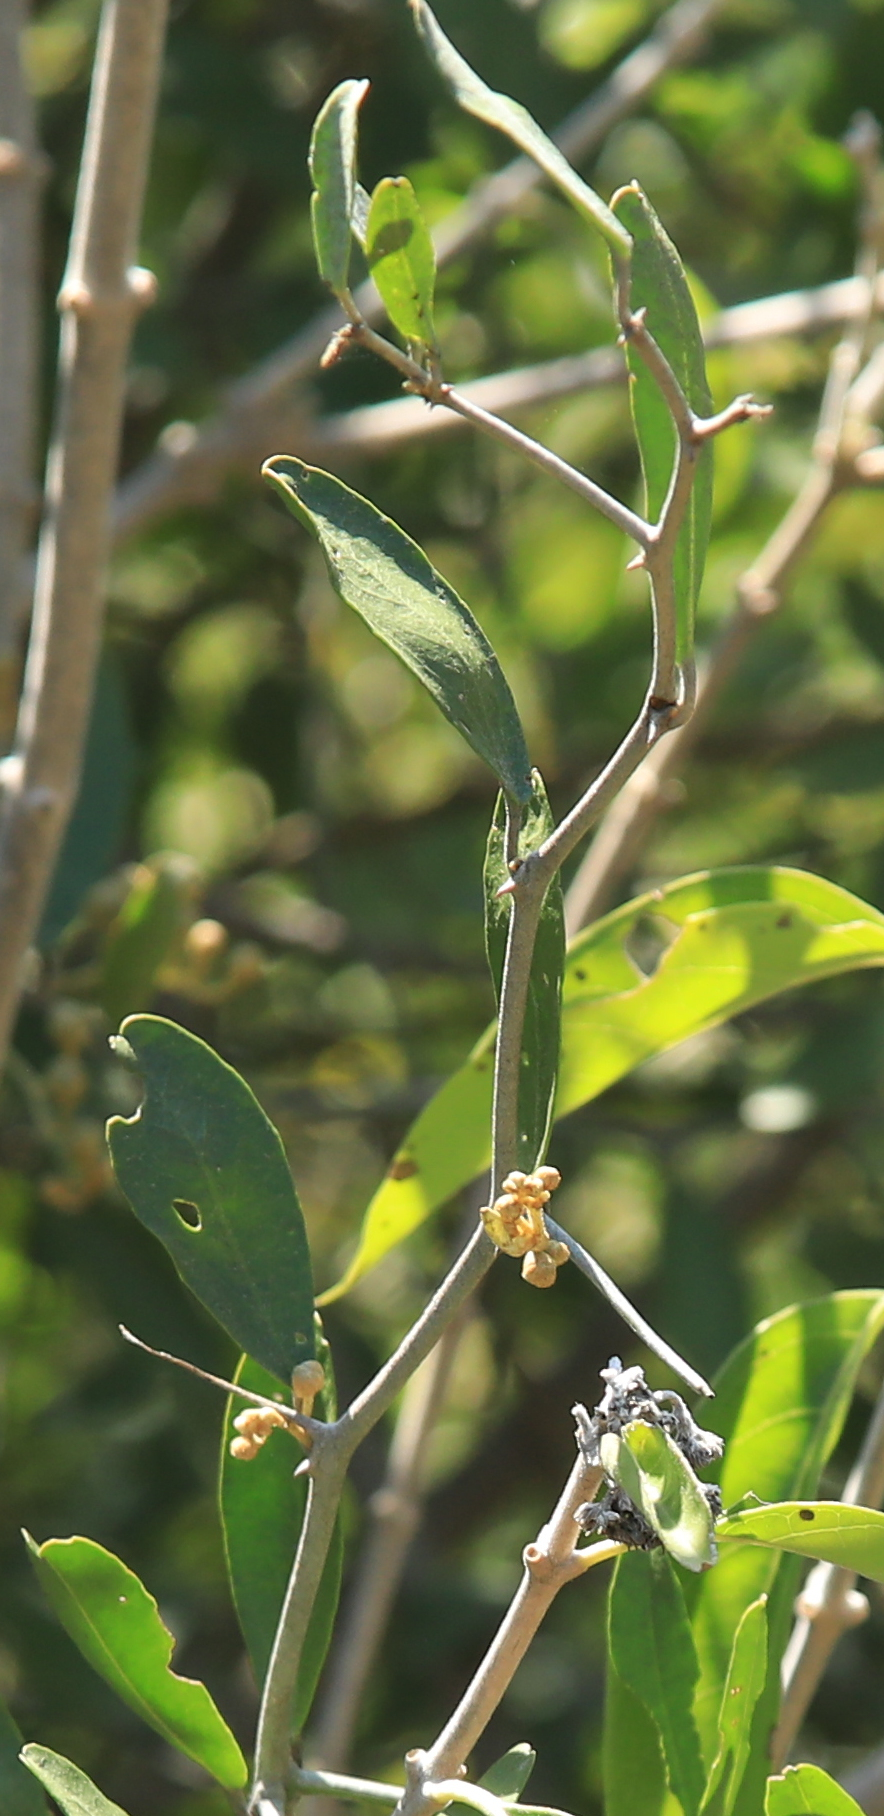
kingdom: Plantae
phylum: Tracheophyta
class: Magnoliopsida
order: Brassicales
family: Capparaceae
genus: Capparis
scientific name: Capparis fascicularis
